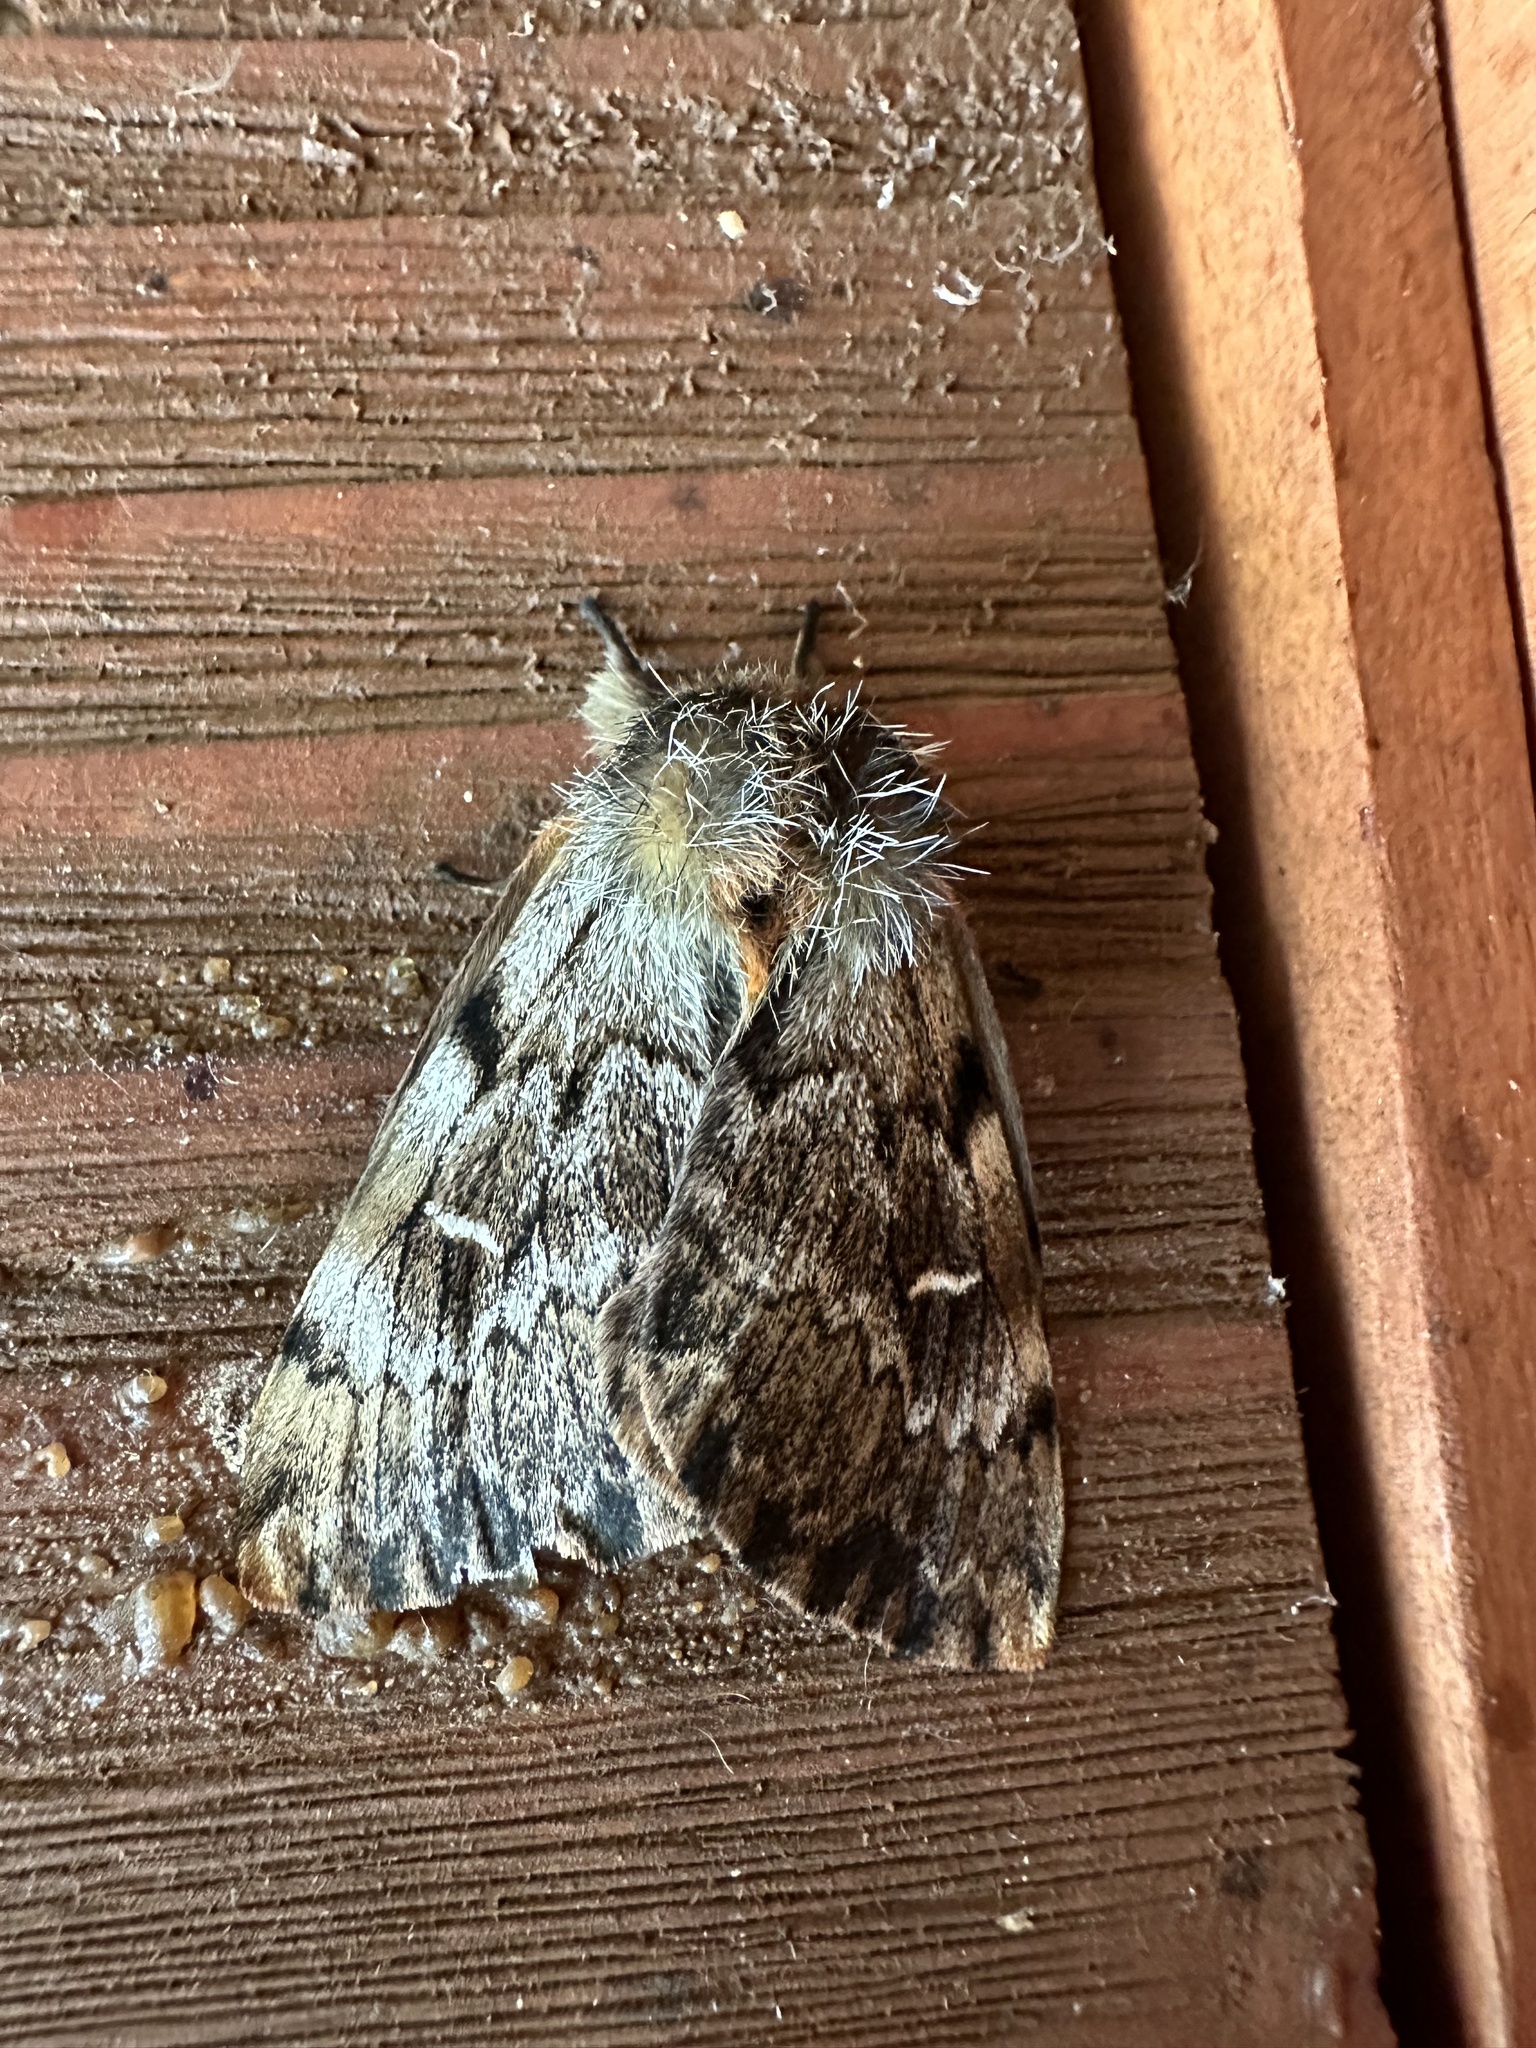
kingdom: Animalia
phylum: Arthropoda
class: Insecta
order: Lepidoptera
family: Saturniidae
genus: Ormiscodes
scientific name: Ormiscodes nigrosignata
